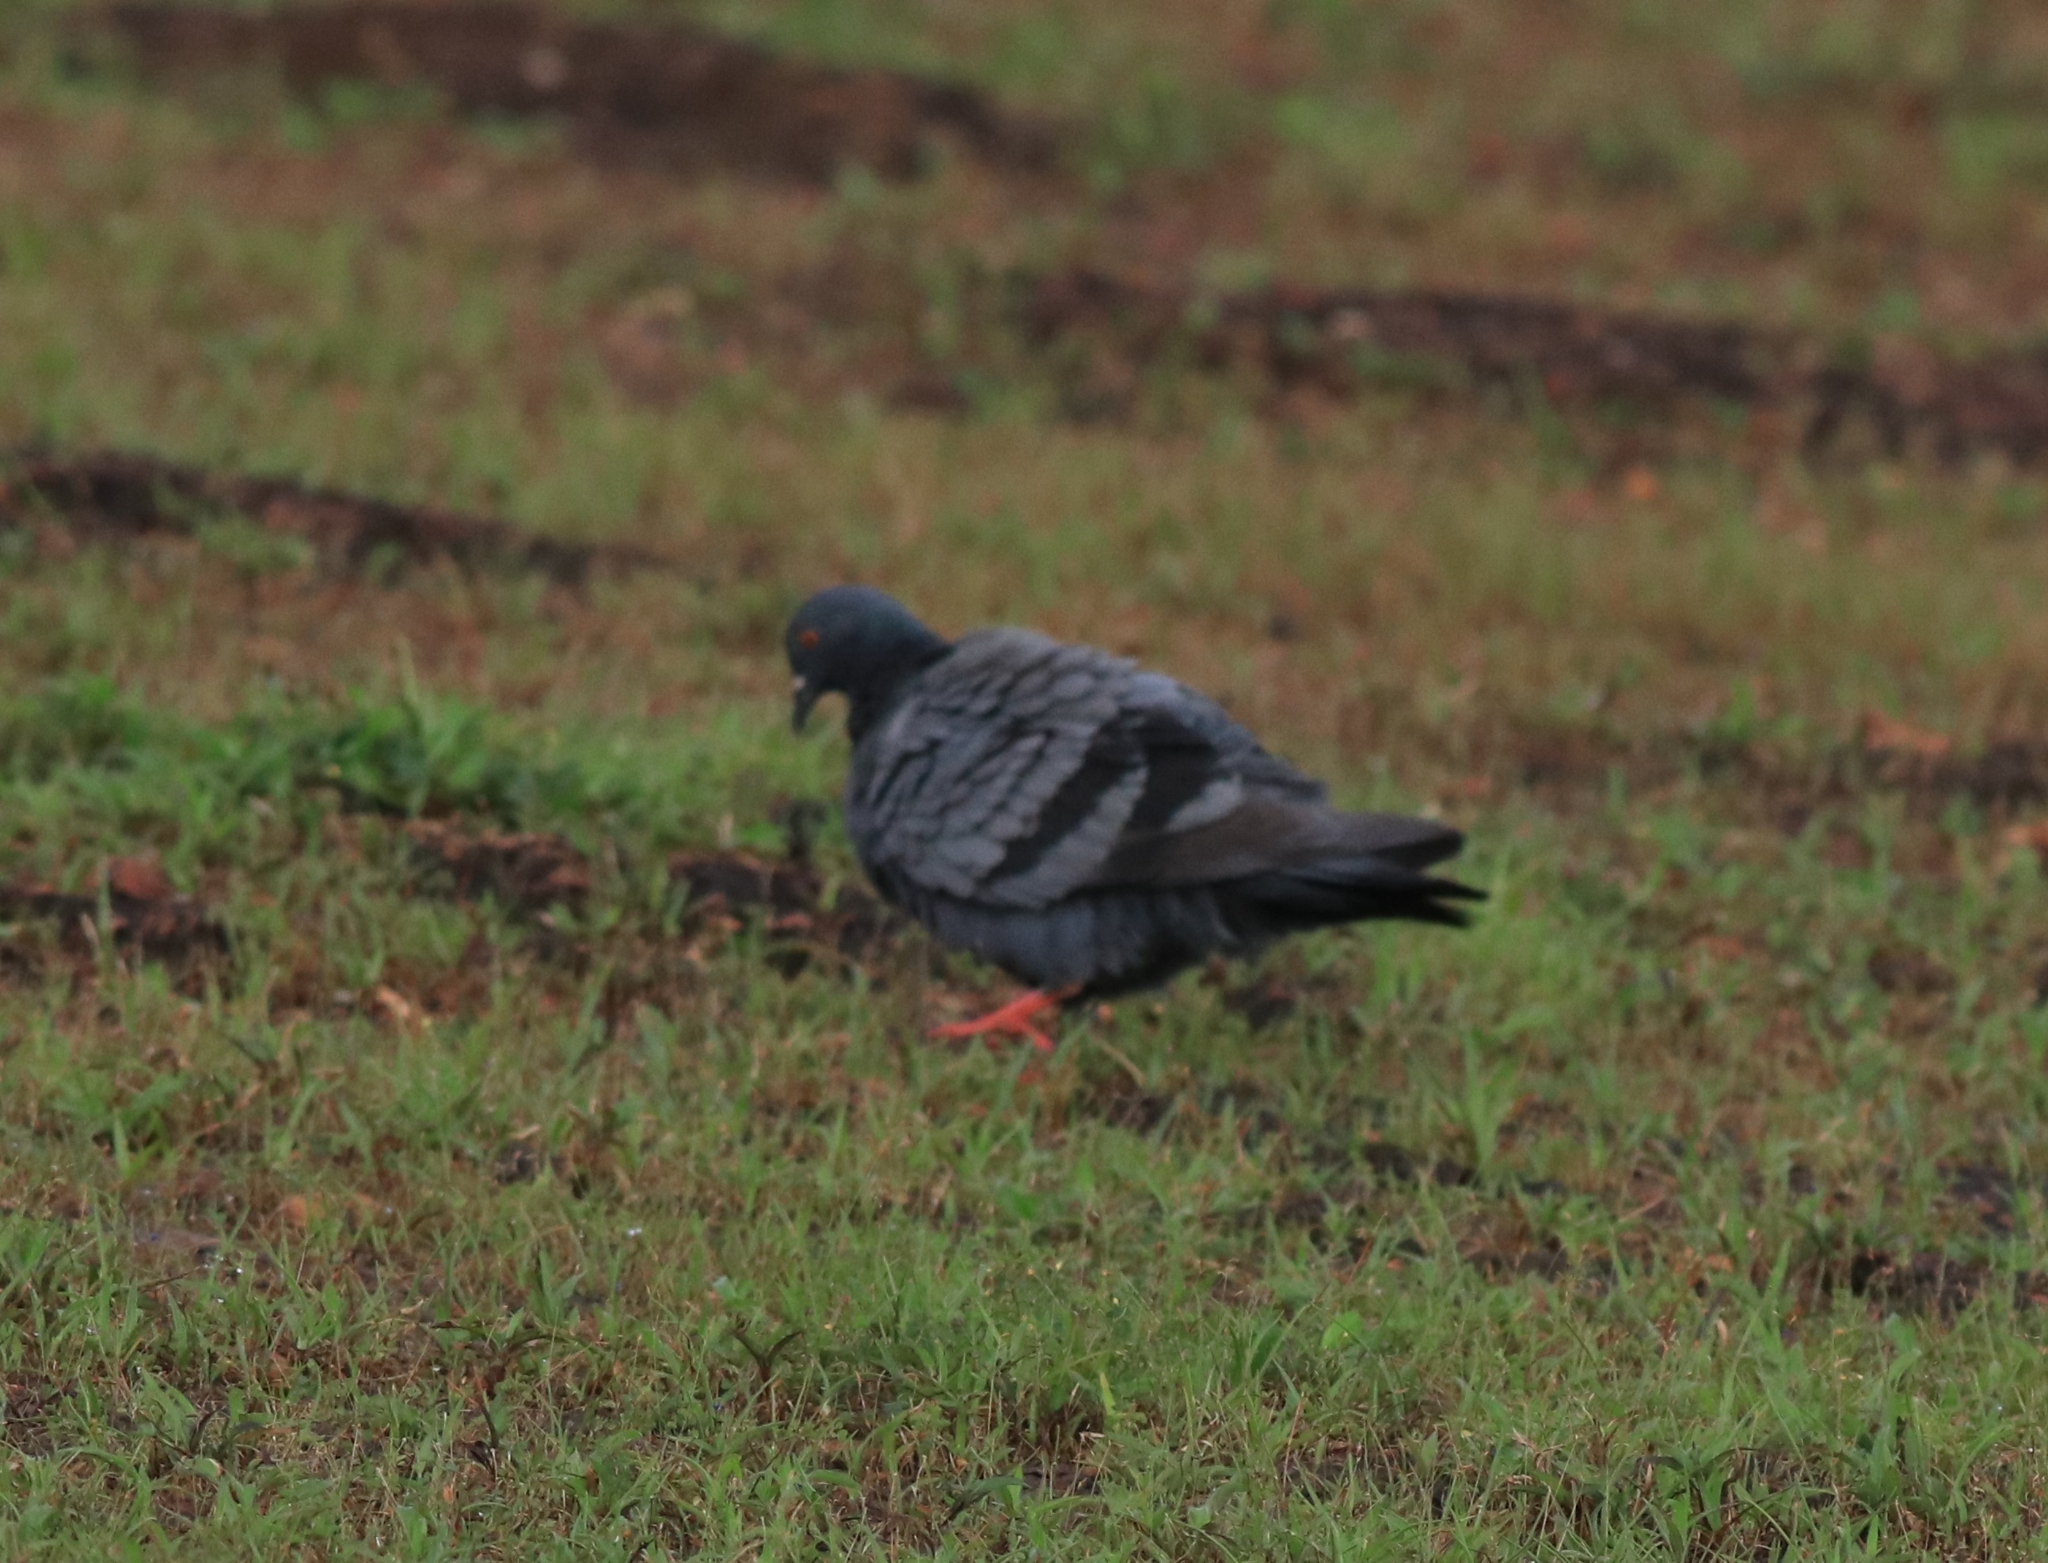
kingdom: Animalia
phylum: Chordata
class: Aves
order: Columbiformes
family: Columbidae
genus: Columba
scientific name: Columba livia
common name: Rock pigeon
